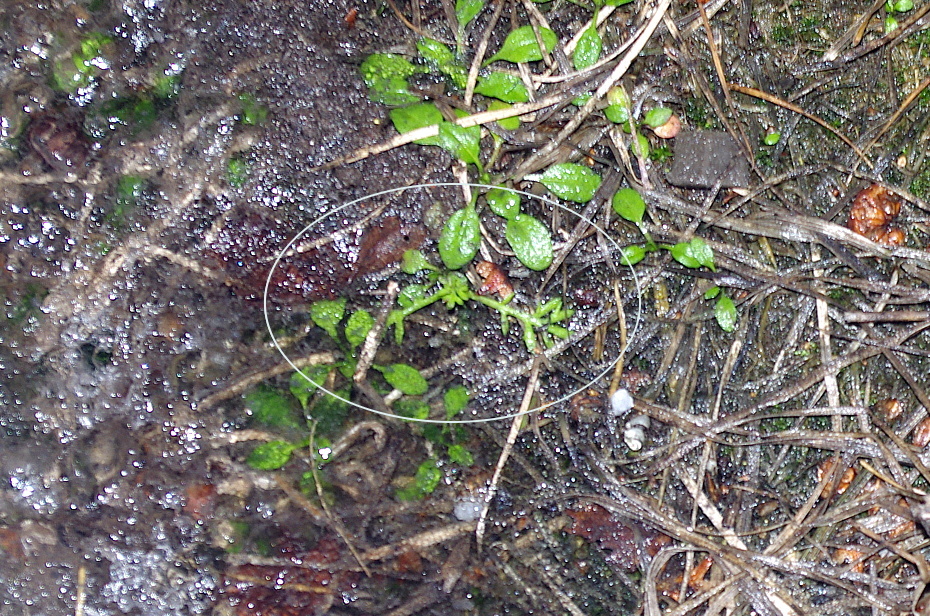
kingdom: Plantae
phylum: Tracheophyta
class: Magnoliopsida
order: Asterales
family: Asteraceae
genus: Tripleurospermum
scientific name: Tripleurospermum inodorum
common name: Scentless mayweed
